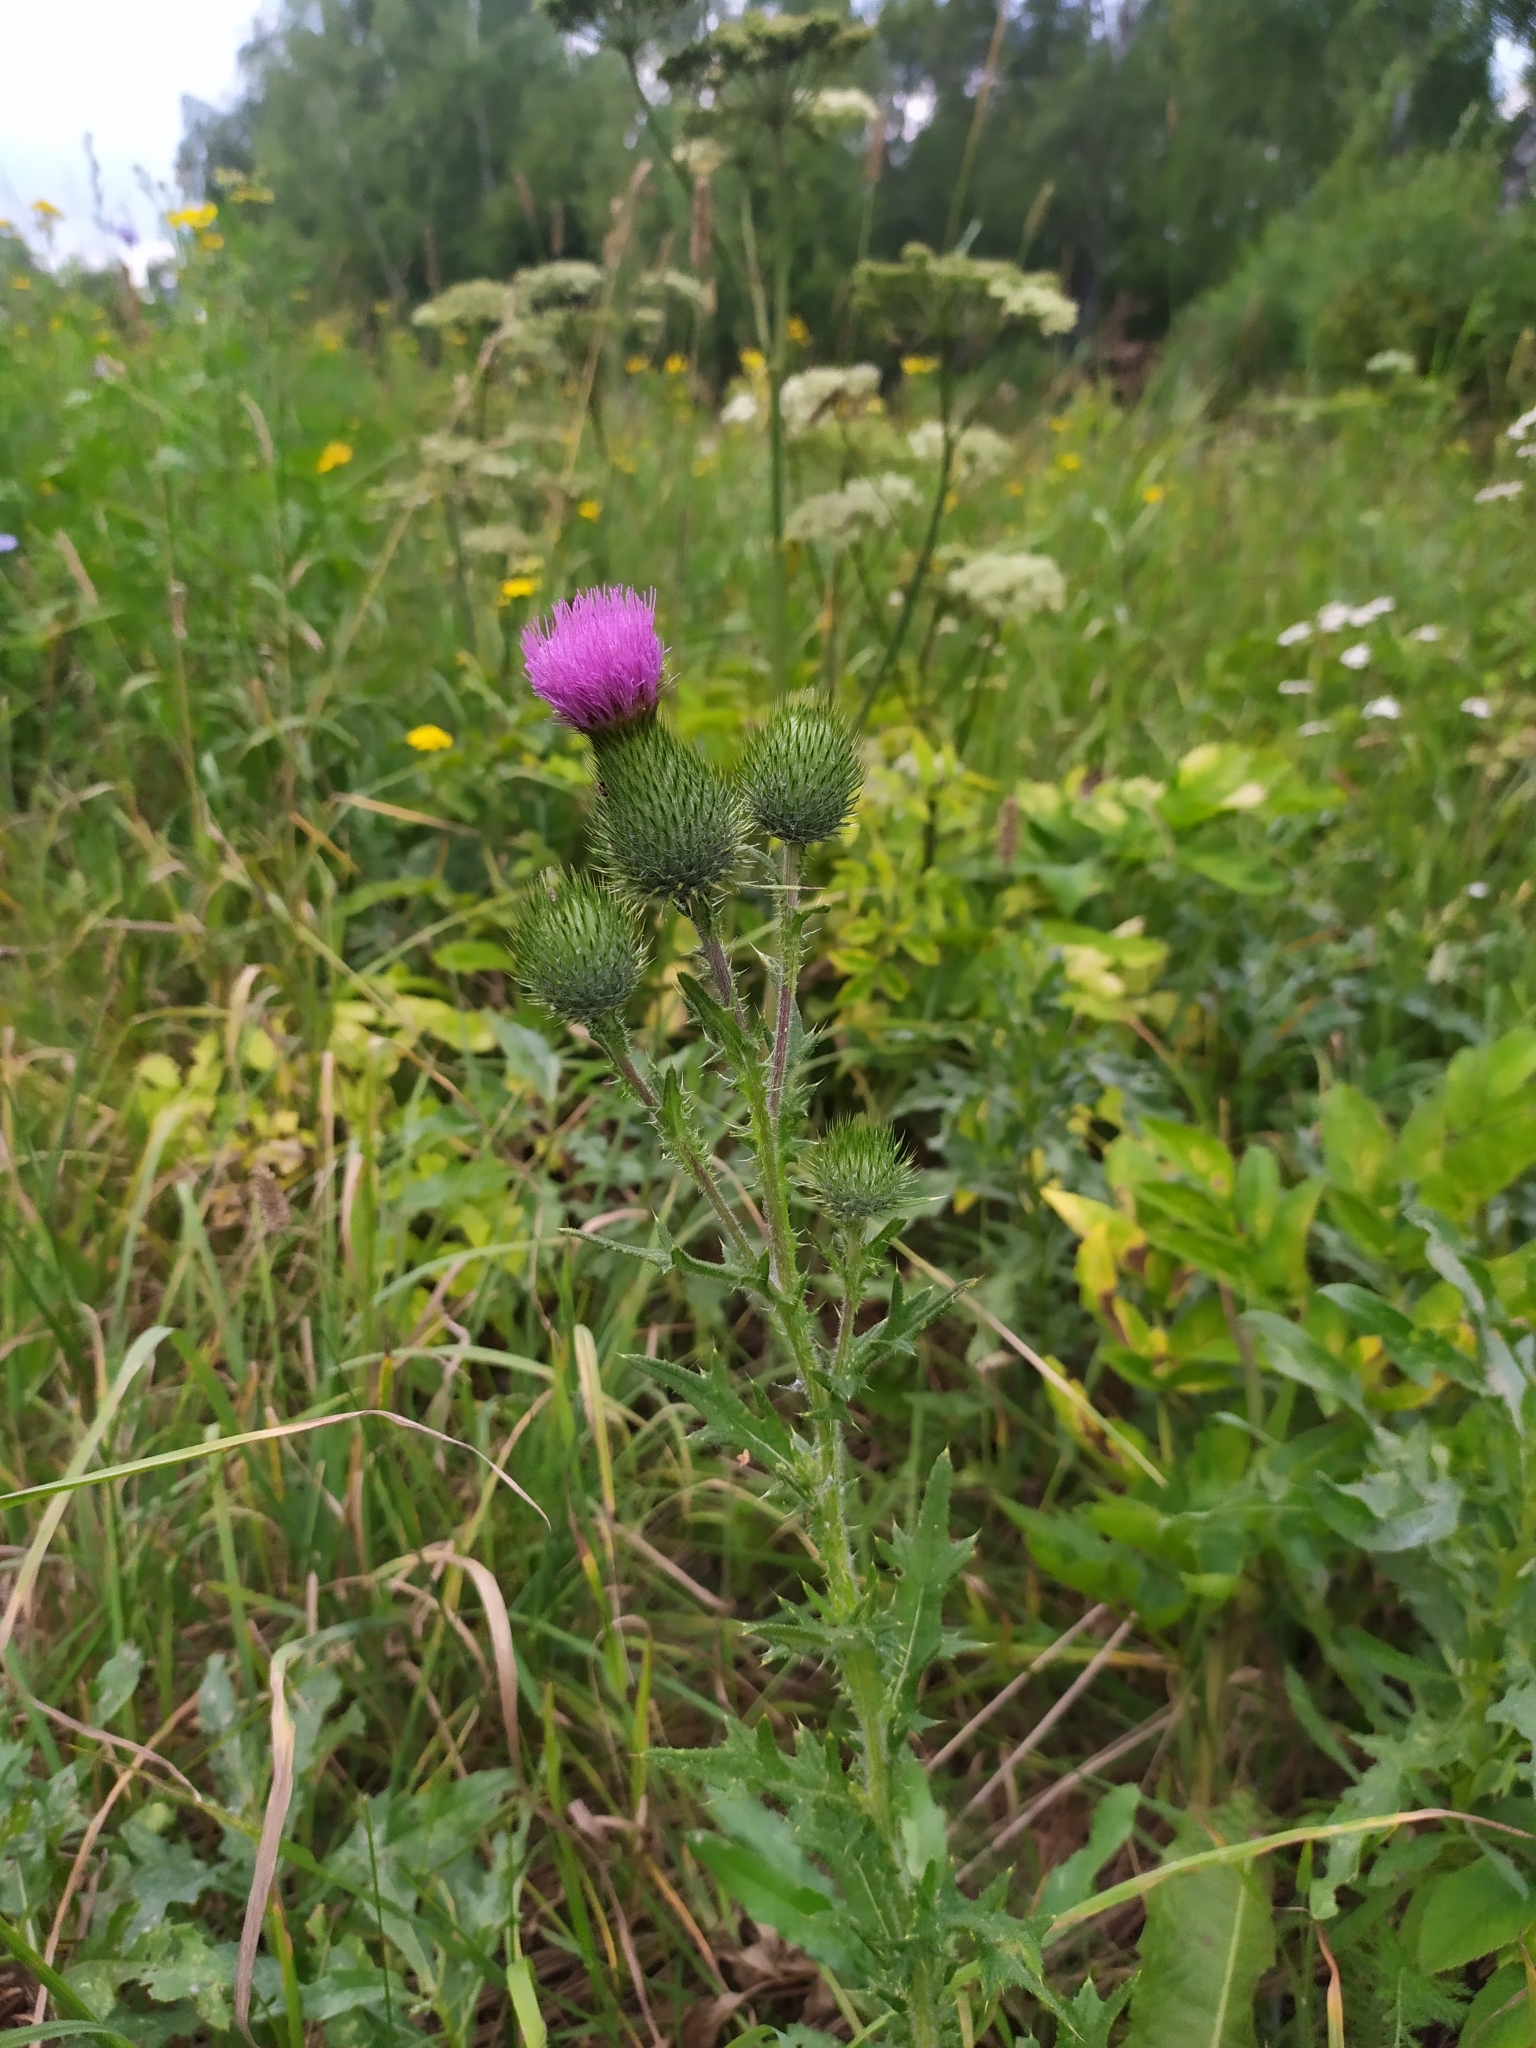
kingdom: Plantae
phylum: Tracheophyta
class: Magnoliopsida
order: Asterales
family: Asteraceae
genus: Cirsium
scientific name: Cirsium vulgare
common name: Bull thistle
